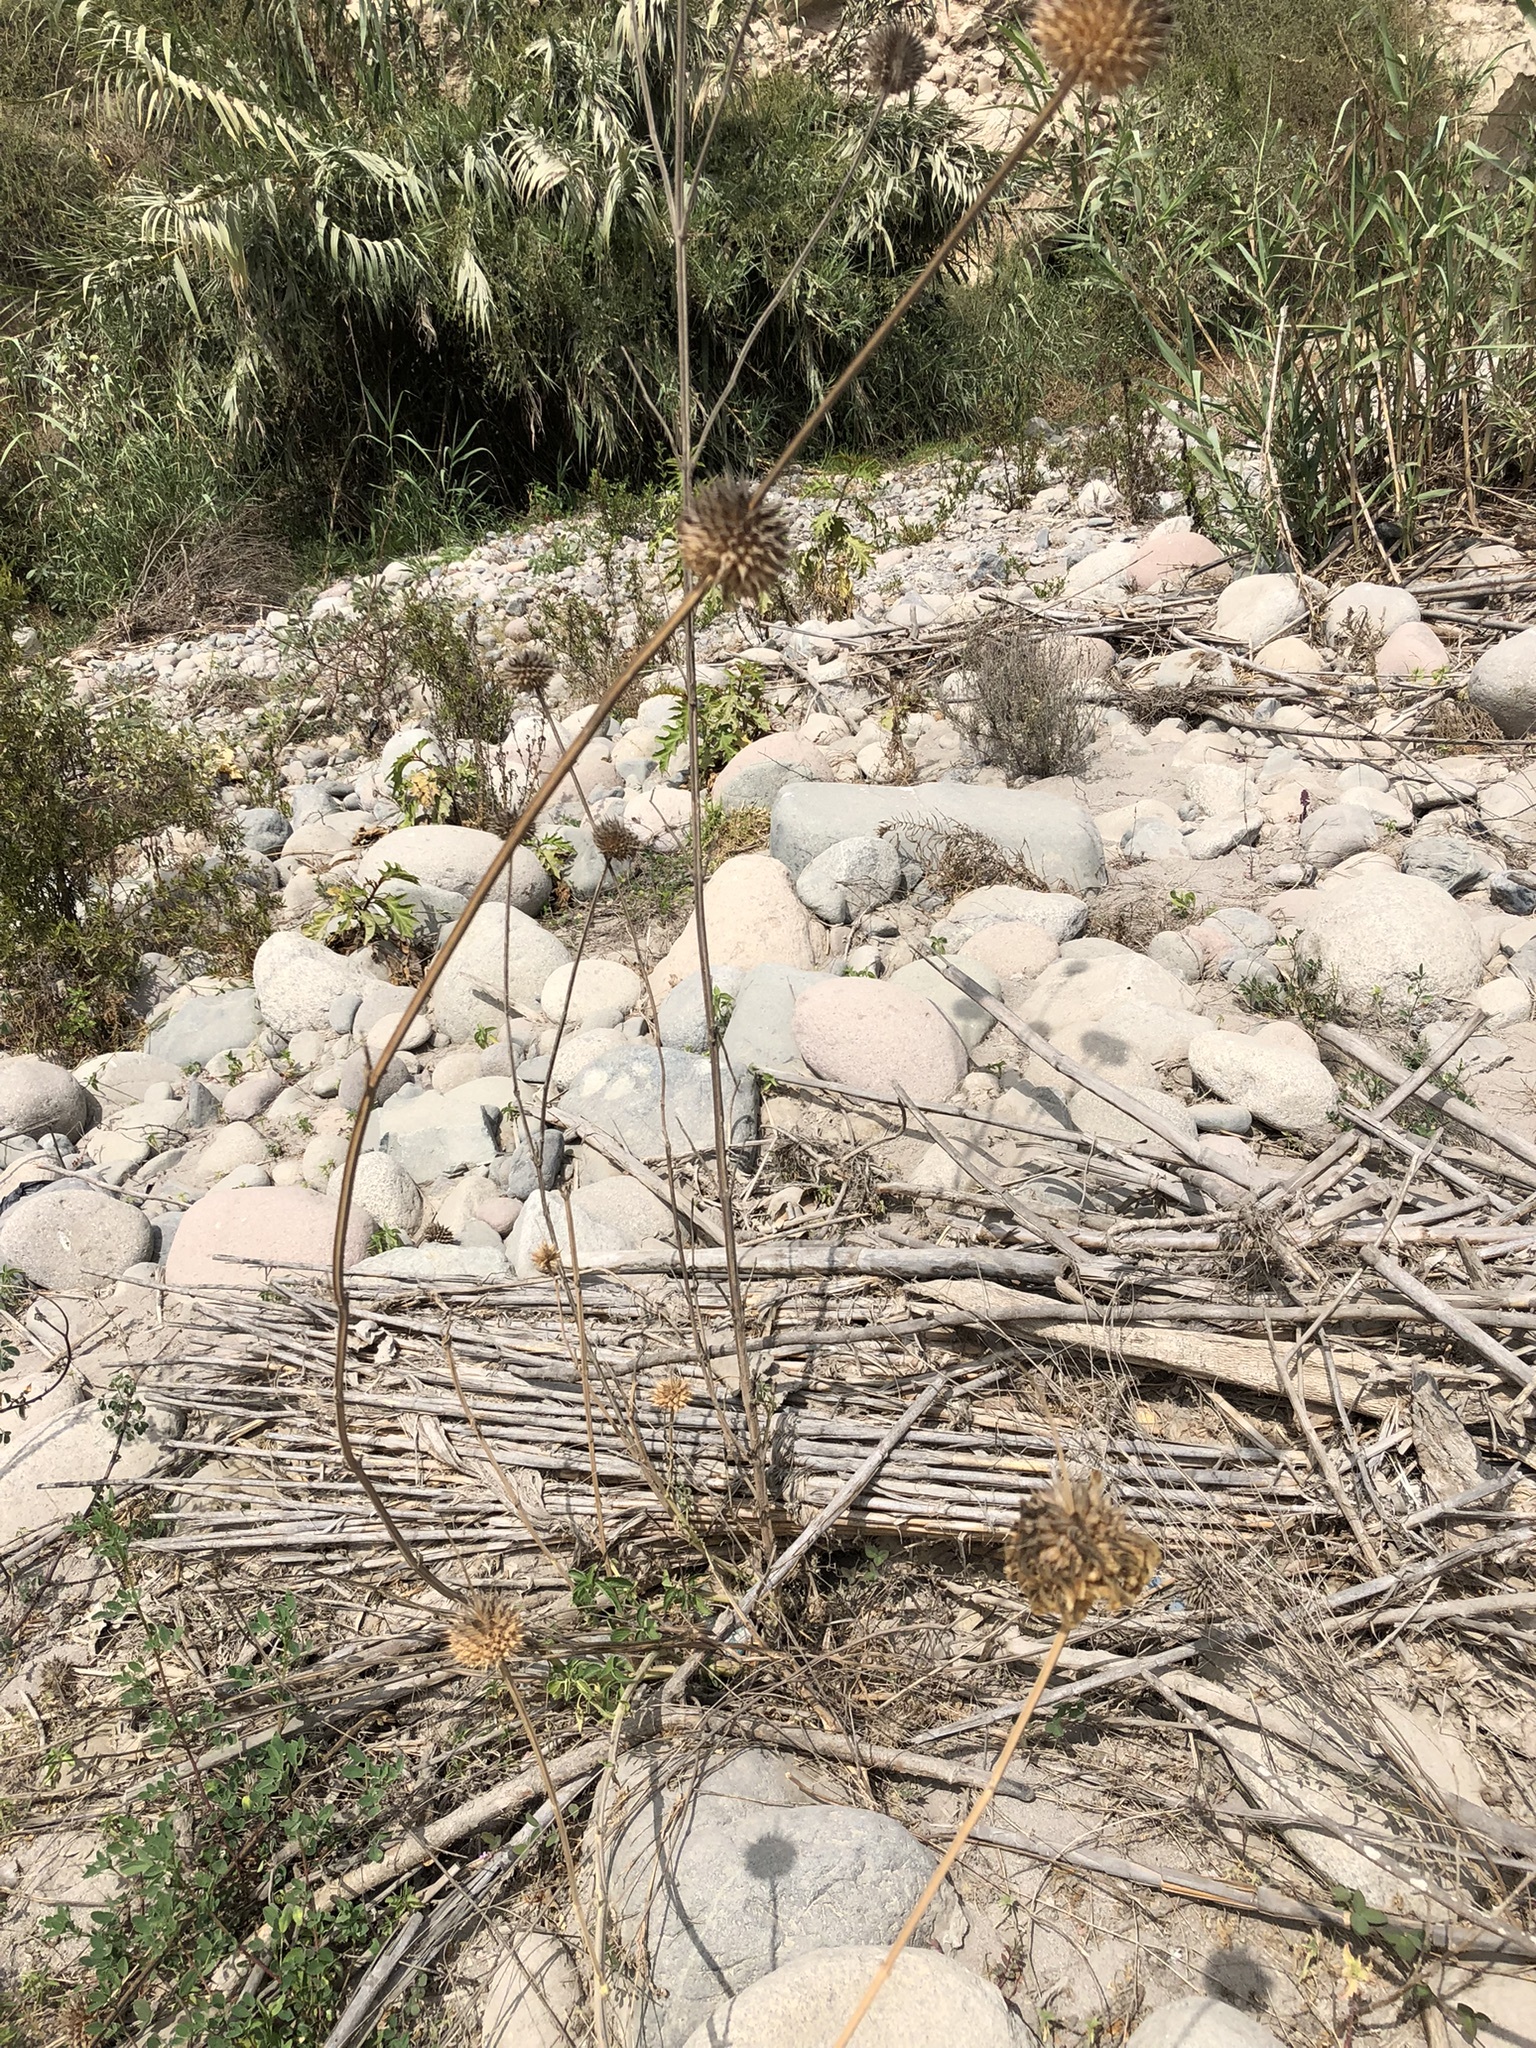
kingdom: Plantae
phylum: Tracheophyta
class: Magnoliopsida
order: Lamiales
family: Lamiaceae
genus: Leonotis
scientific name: Leonotis nepetifolia
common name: Christmas candlestick
